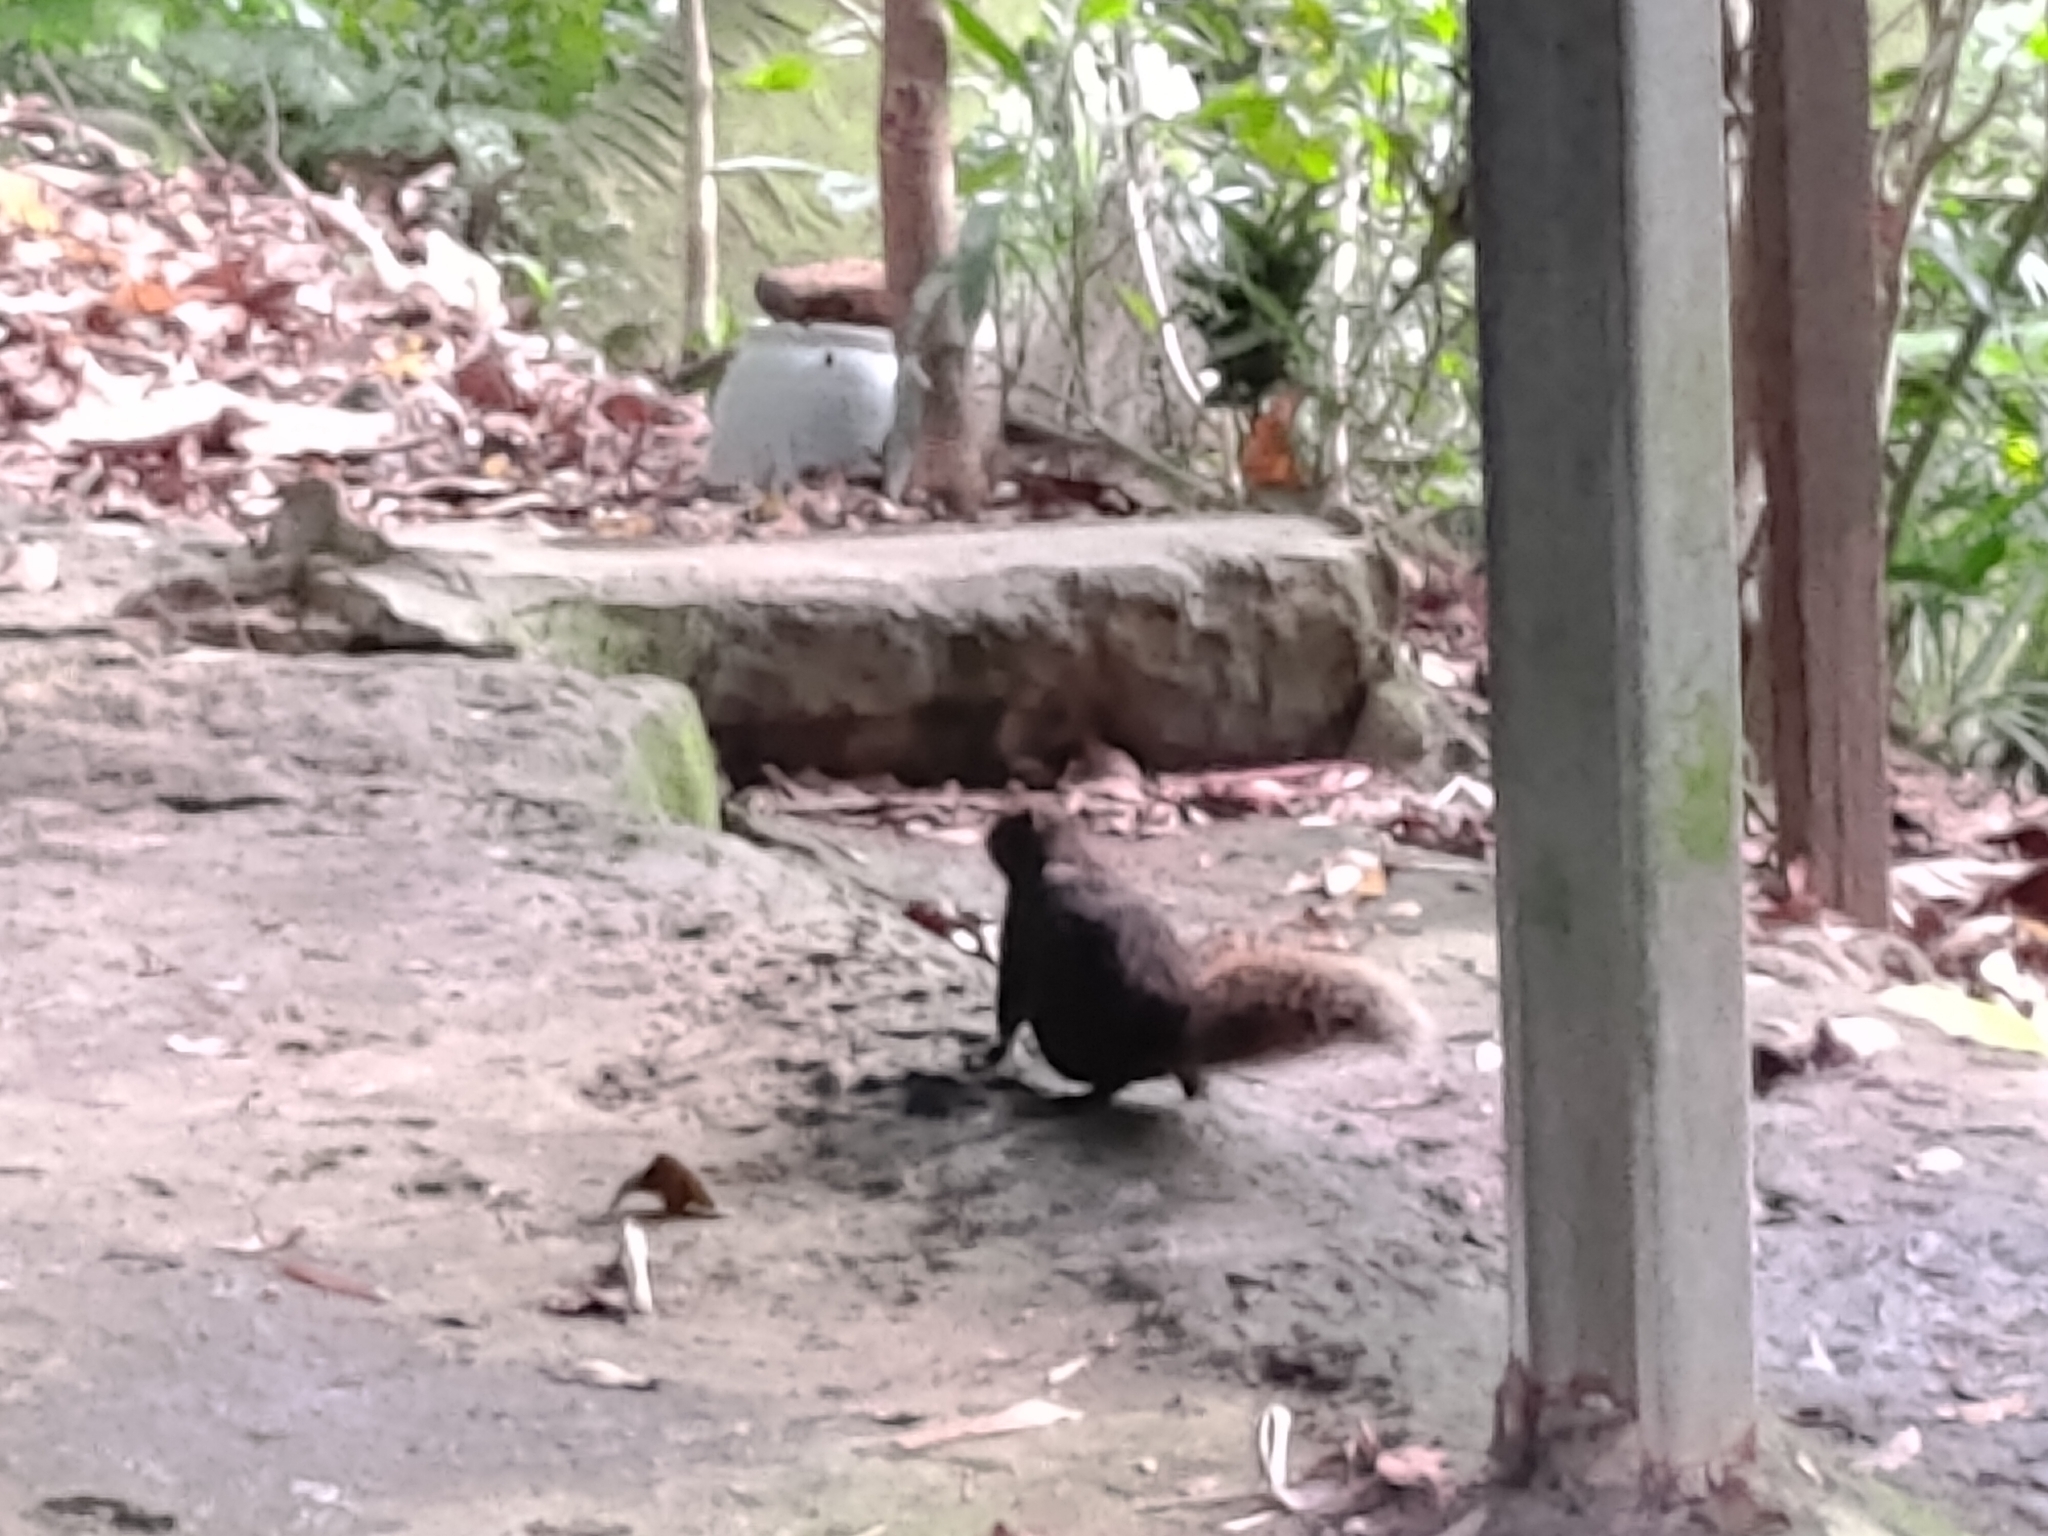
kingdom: Animalia
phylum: Chordata
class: Mammalia
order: Rodentia
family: Sciuridae
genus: Callosciurus
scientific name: Callosciurus erythraeus
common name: Pallas's squirrel
